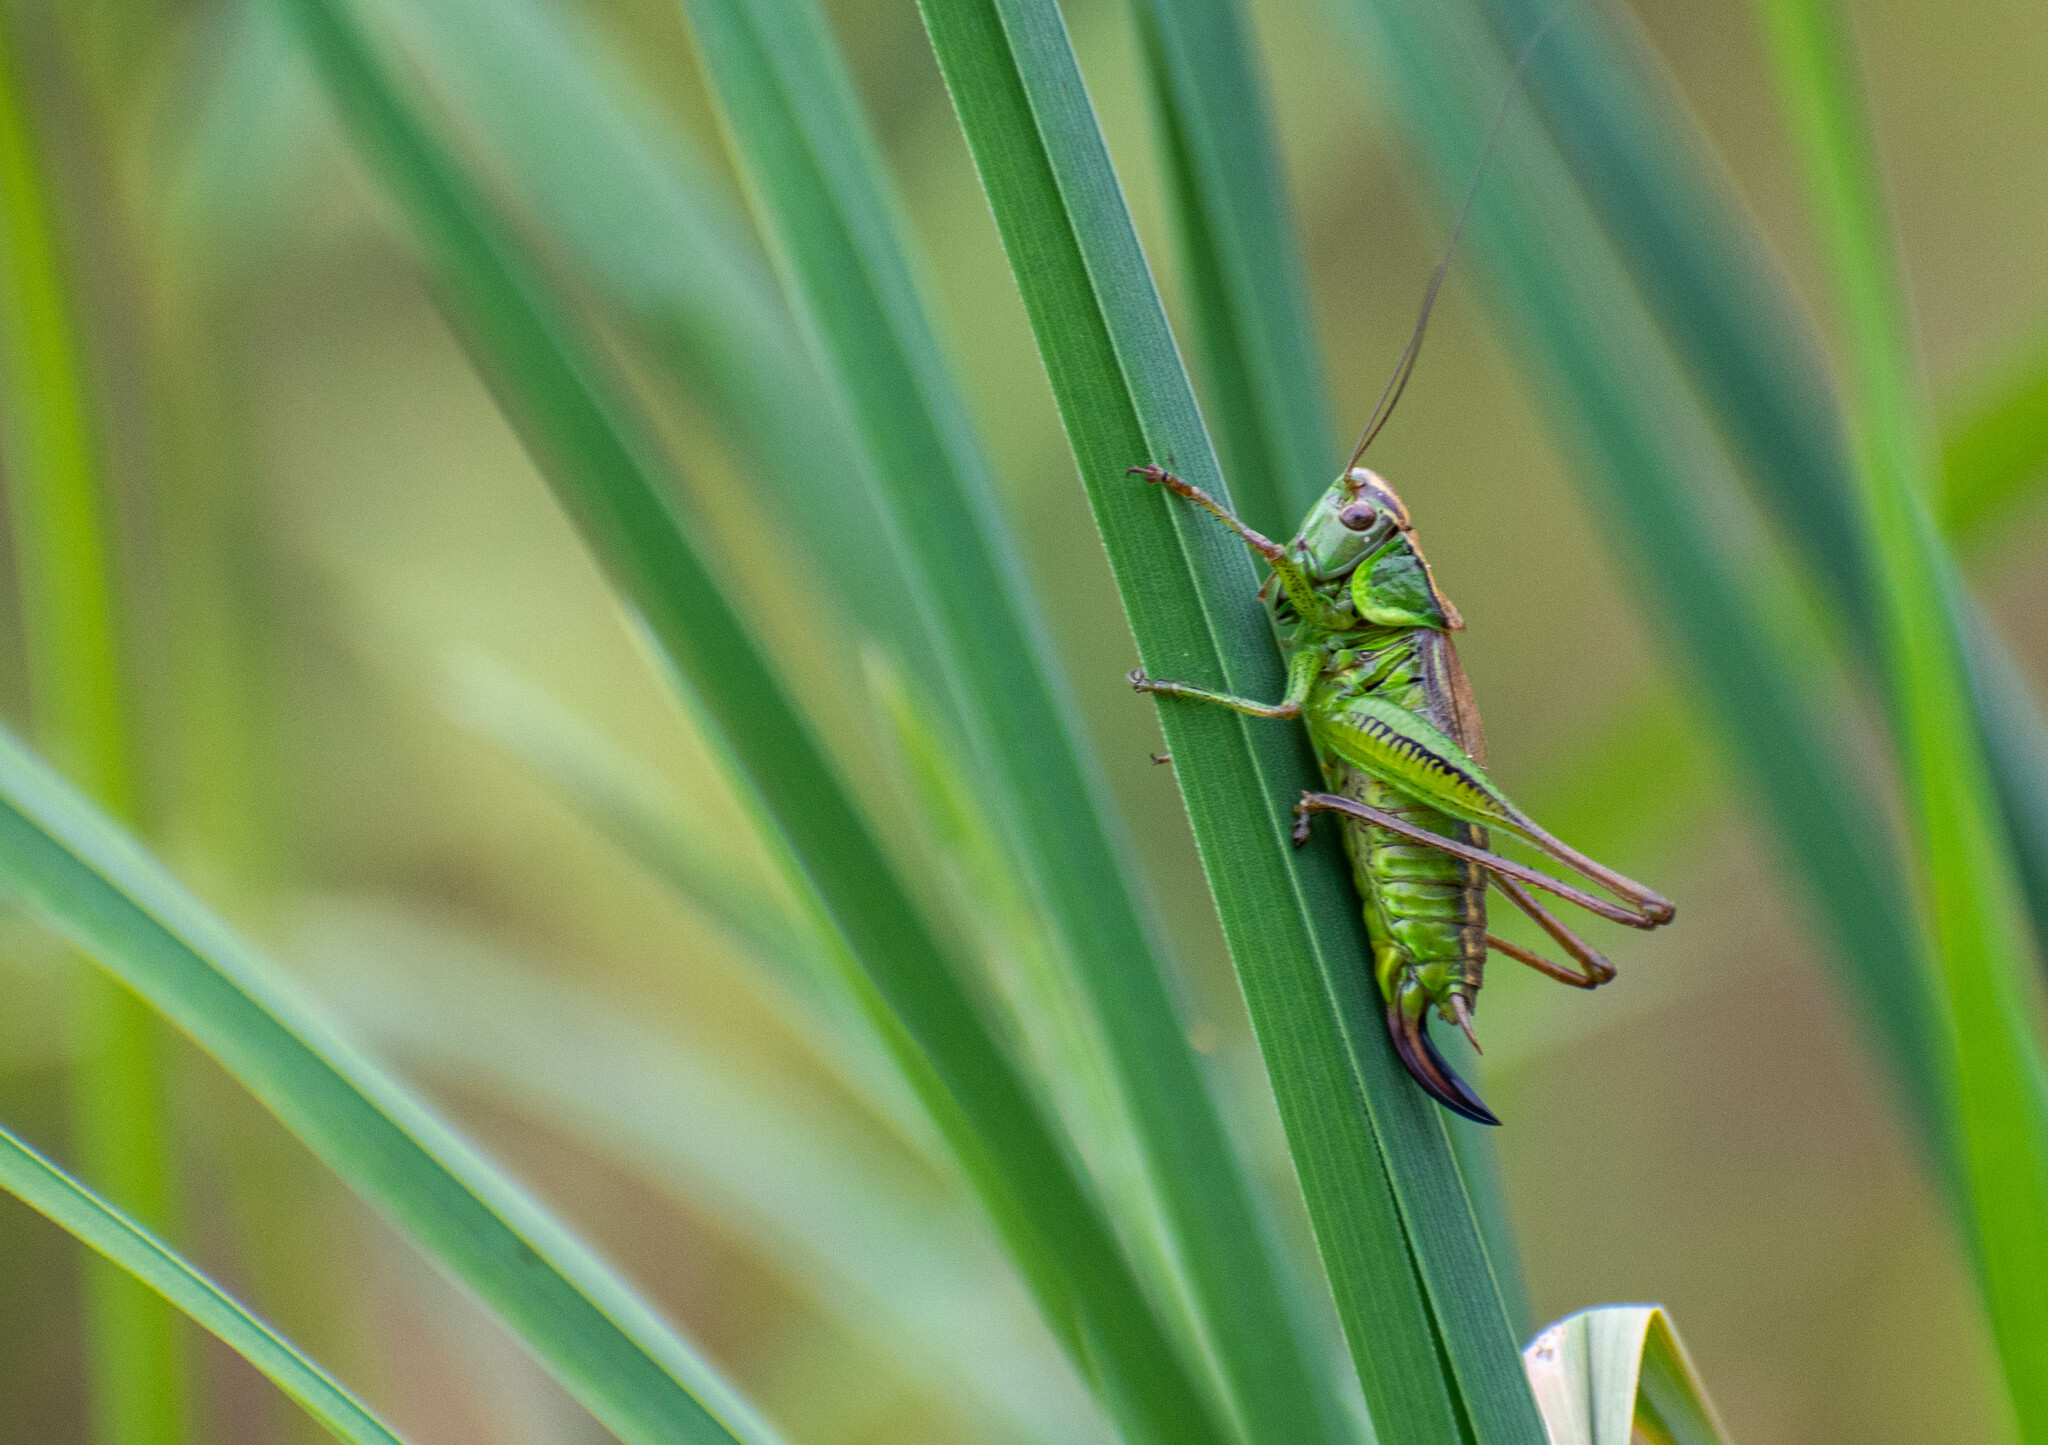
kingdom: Animalia
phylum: Arthropoda
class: Insecta
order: Orthoptera
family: Tettigoniidae
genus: Roeseliana
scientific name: Roeseliana roeselii
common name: Roesel's bush cricket
